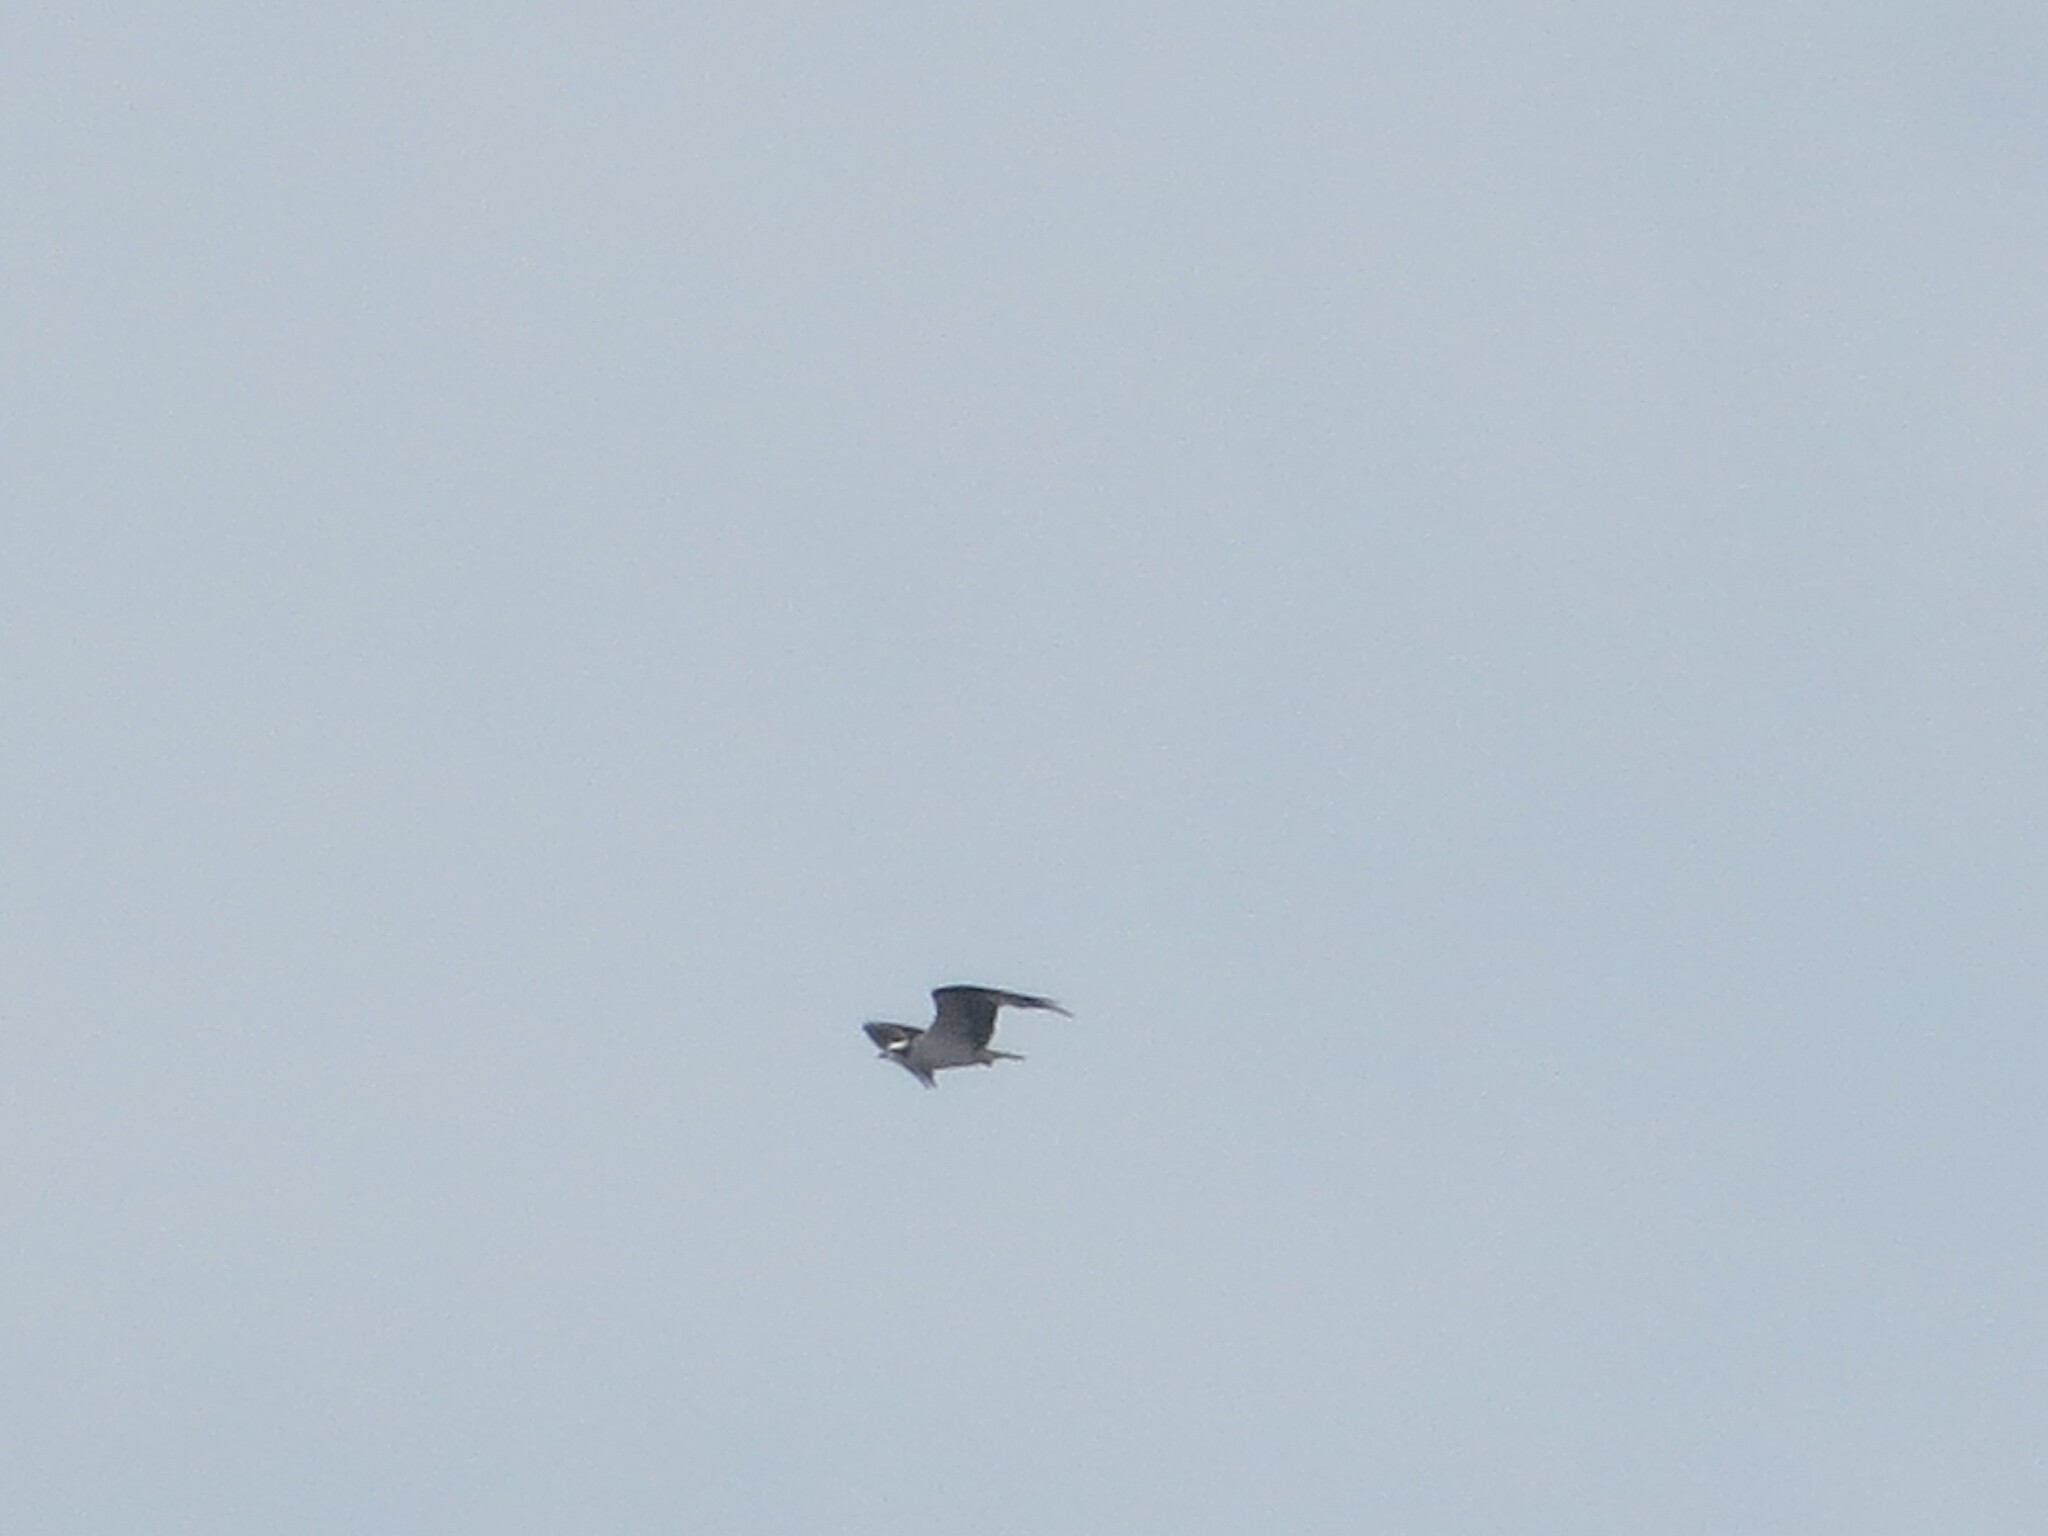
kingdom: Animalia
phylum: Chordata
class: Aves
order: Accipitriformes
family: Pandionidae
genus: Pandion
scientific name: Pandion haliaetus
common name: Osprey
